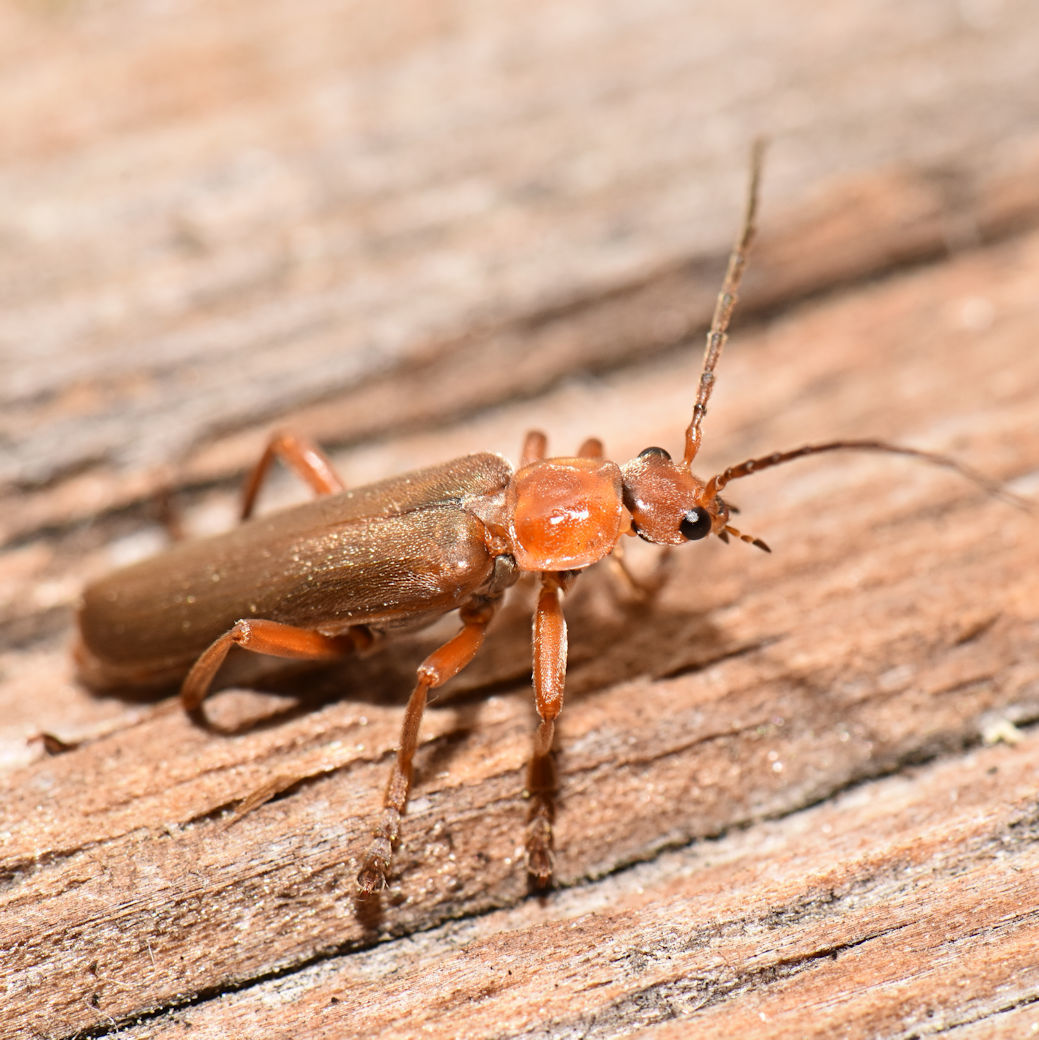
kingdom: Animalia
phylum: Arthropoda
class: Insecta
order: Coleoptera
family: Cantharidae
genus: Cantharis
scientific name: Cantharis rufa
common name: Red-spotted soldier beetle
